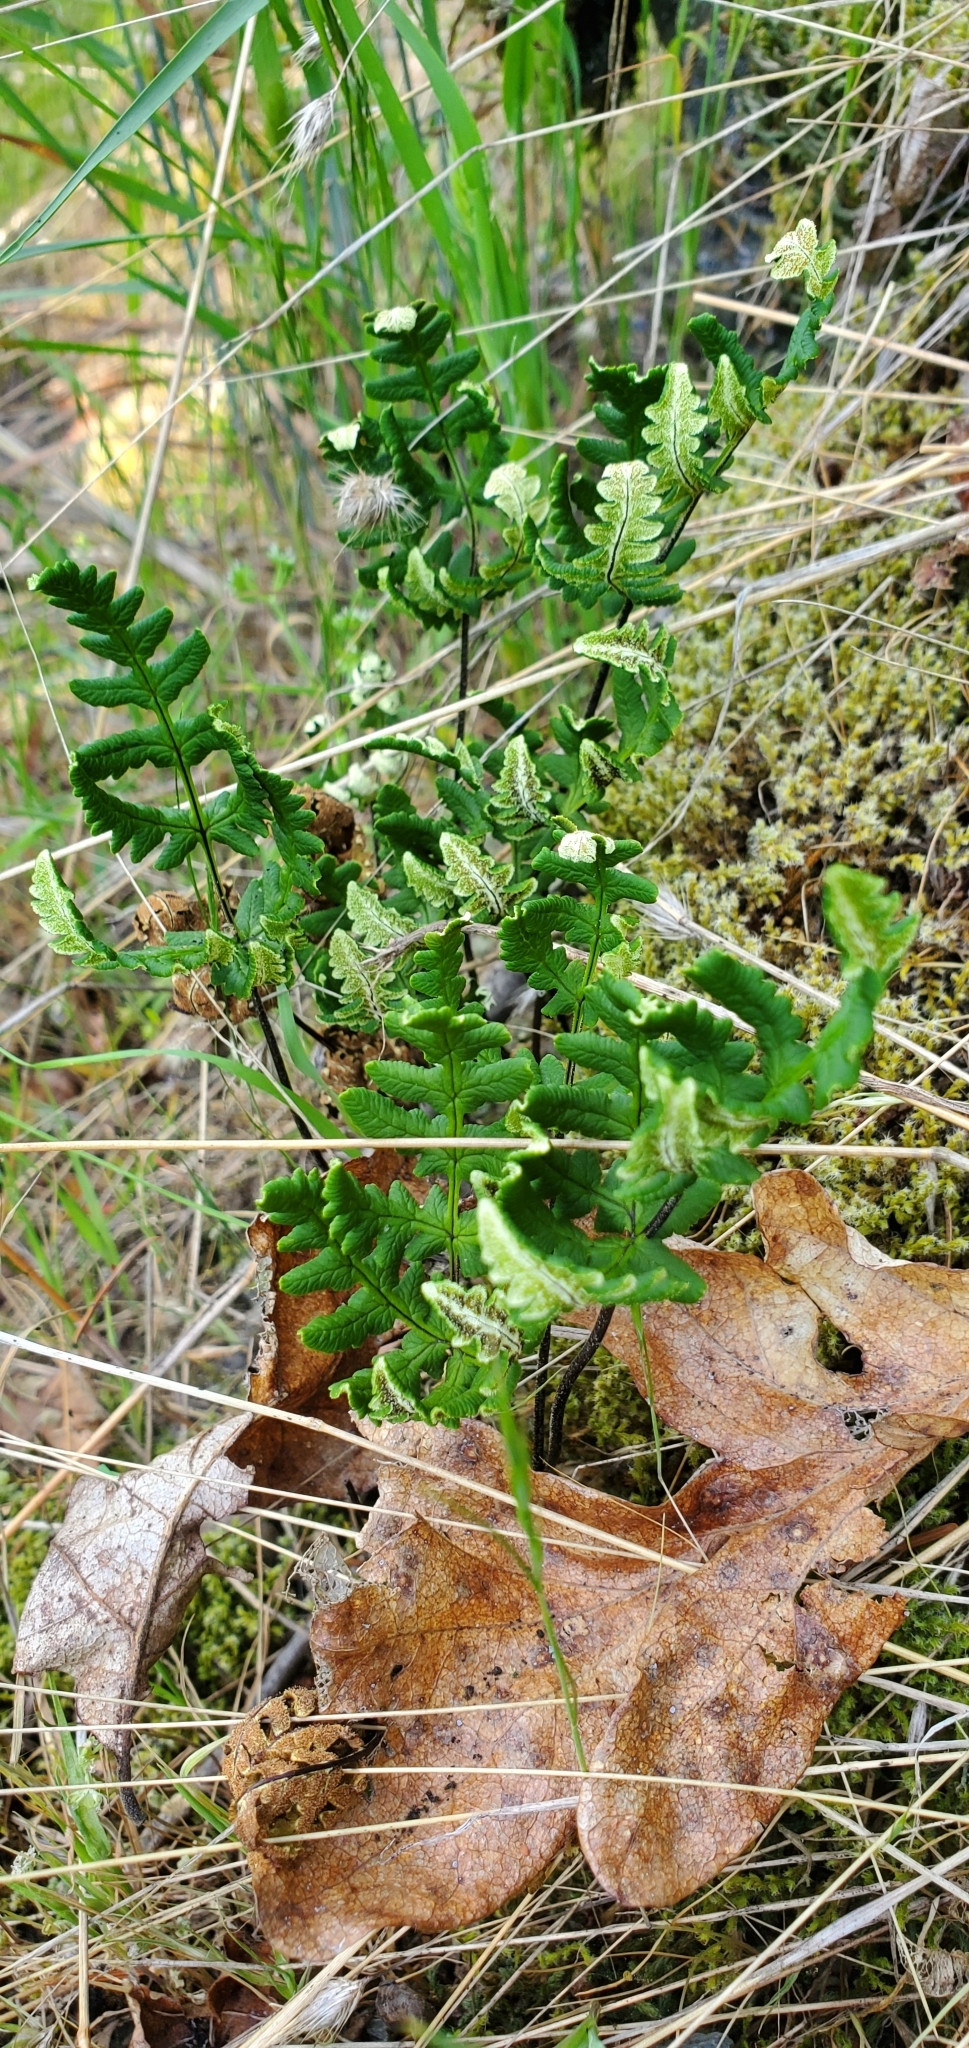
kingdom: Plantae
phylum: Tracheophyta
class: Polypodiopsida
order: Polypodiales
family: Pteridaceae
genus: Pentagramma
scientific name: Pentagramma triangularis
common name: Gold fern
